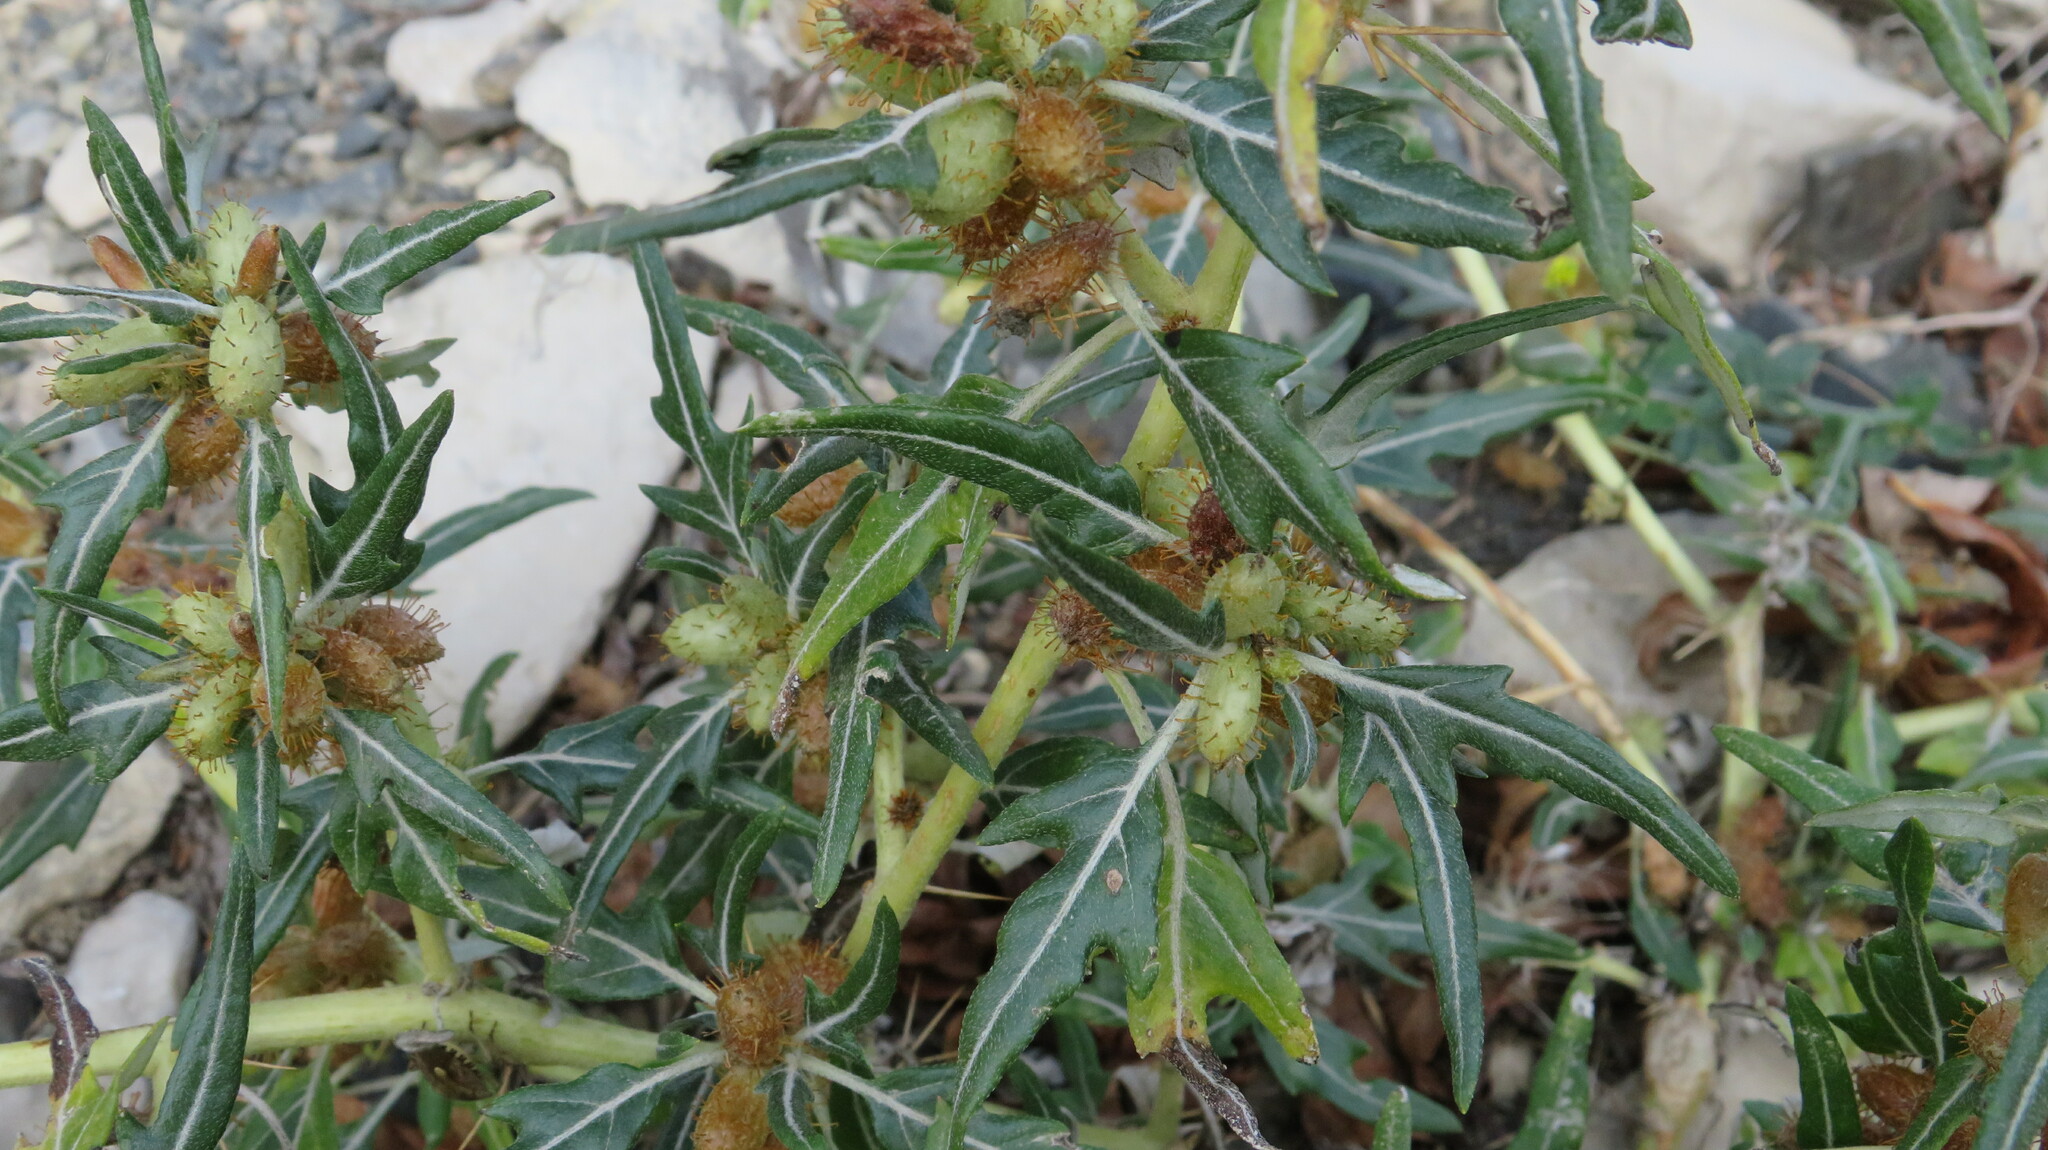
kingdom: Plantae
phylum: Tracheophyta
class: Magnoliopsida
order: Asterales
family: Asteraceae
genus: Xanthium
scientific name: Xanthium spinosum
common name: Spiny cocklebur
